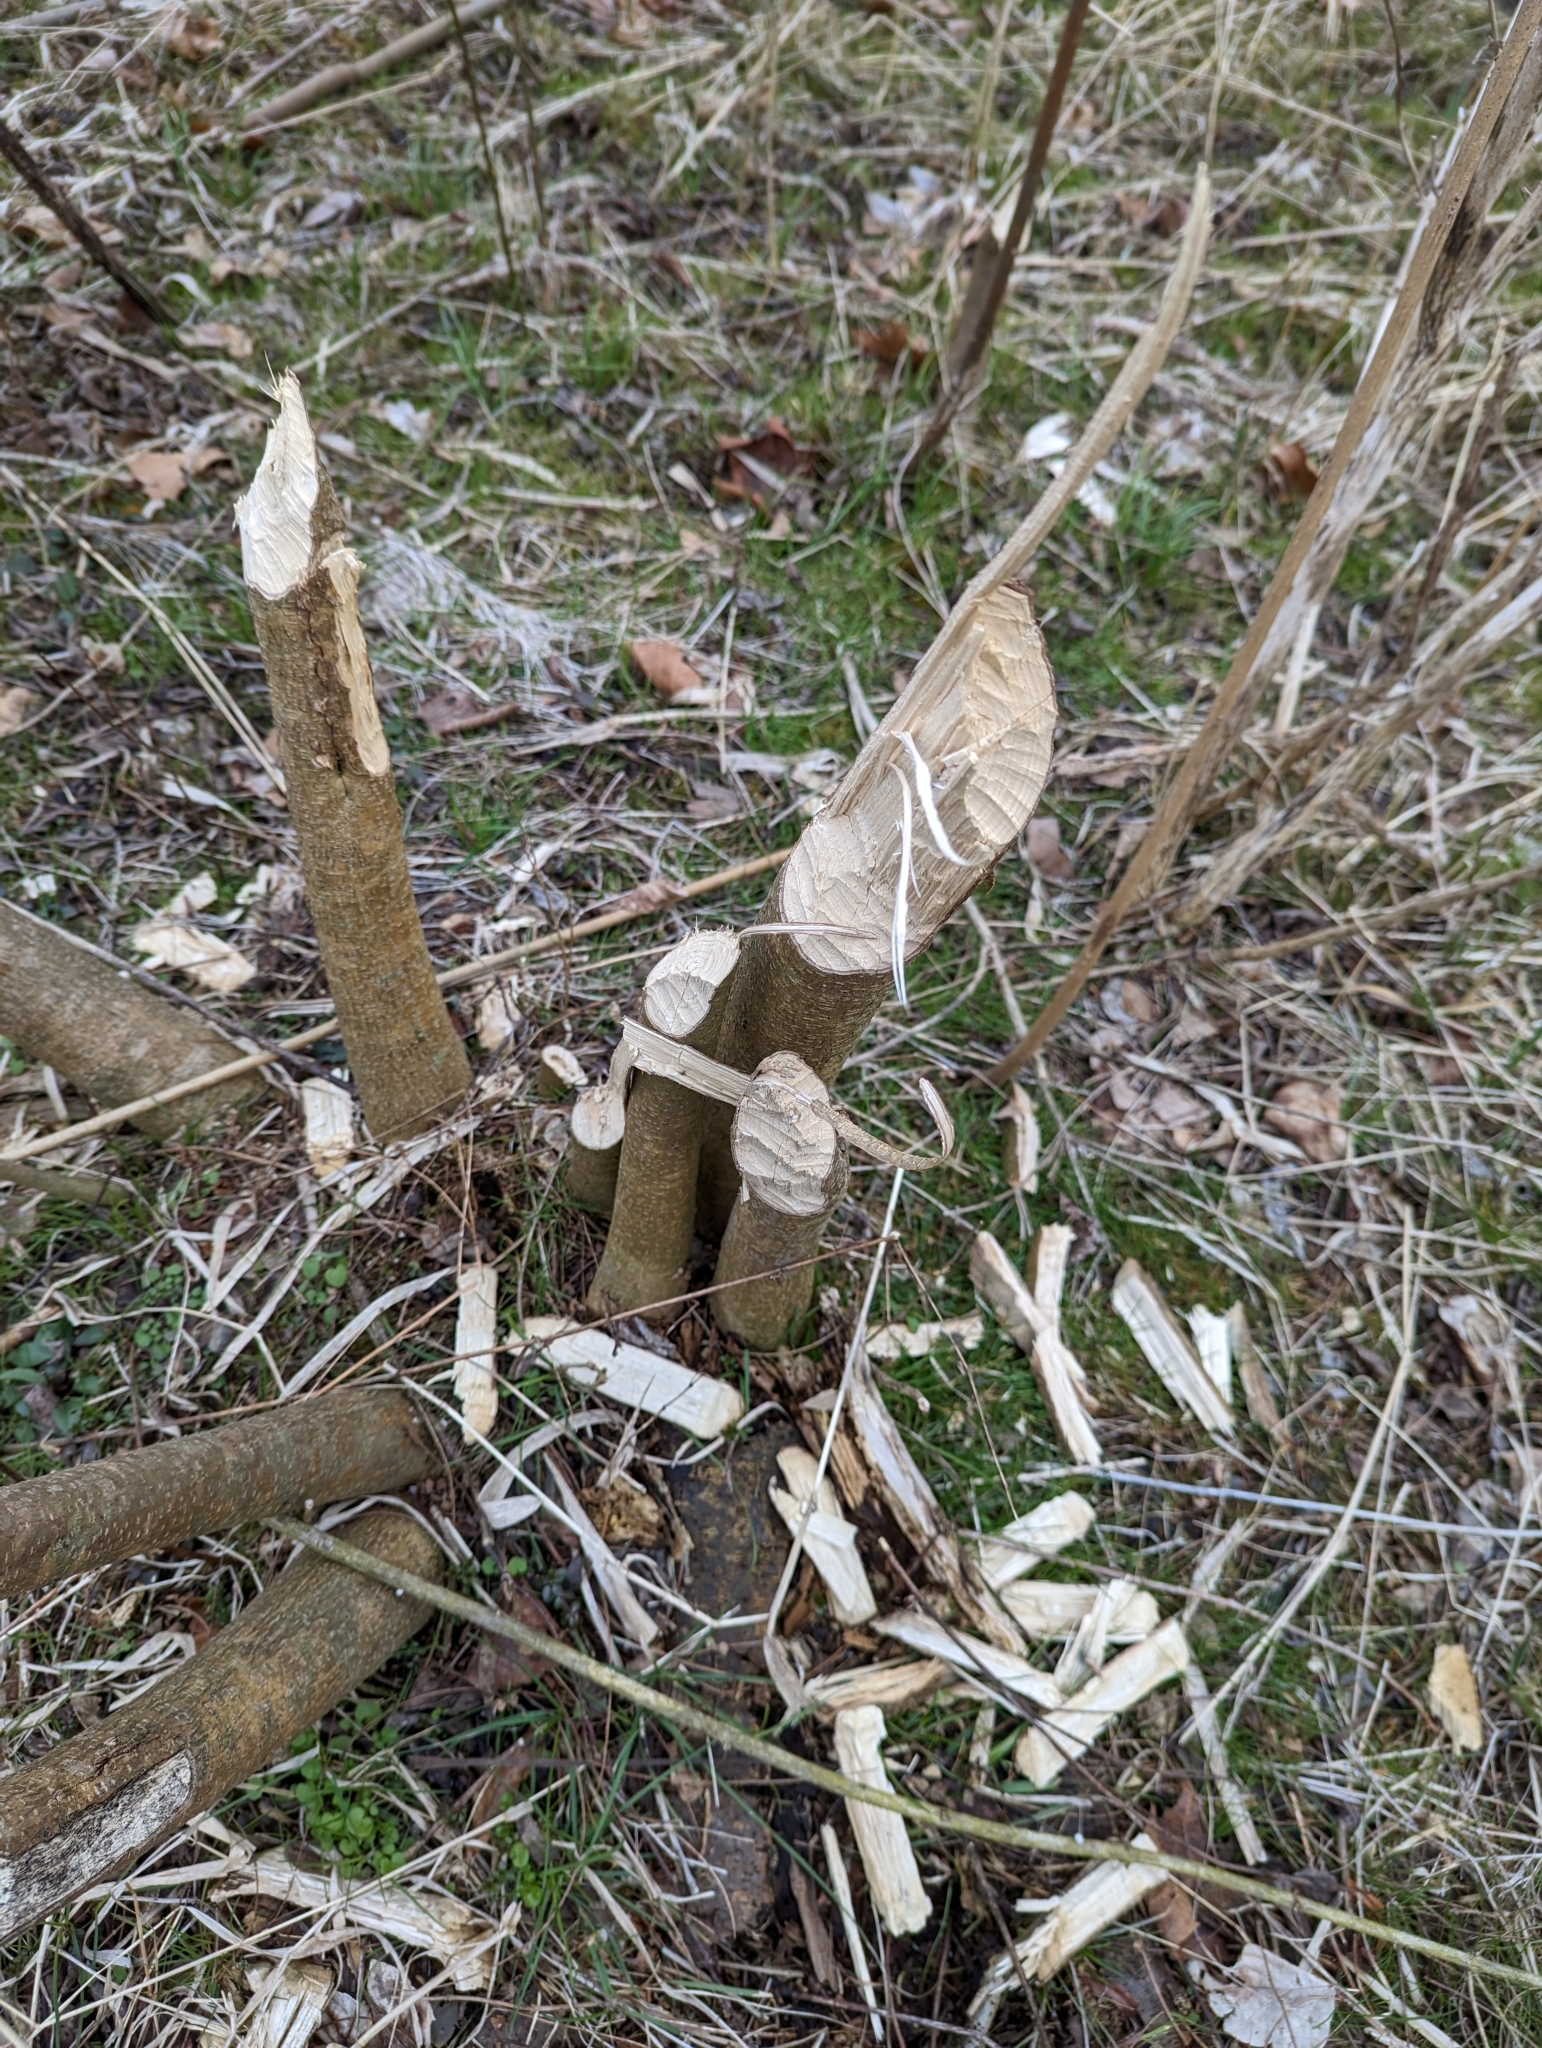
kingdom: Animalia
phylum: Chordata
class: Mammalia
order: Rodentia
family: Castoridae
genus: Castor
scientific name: Castor canadensis
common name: American beaver
